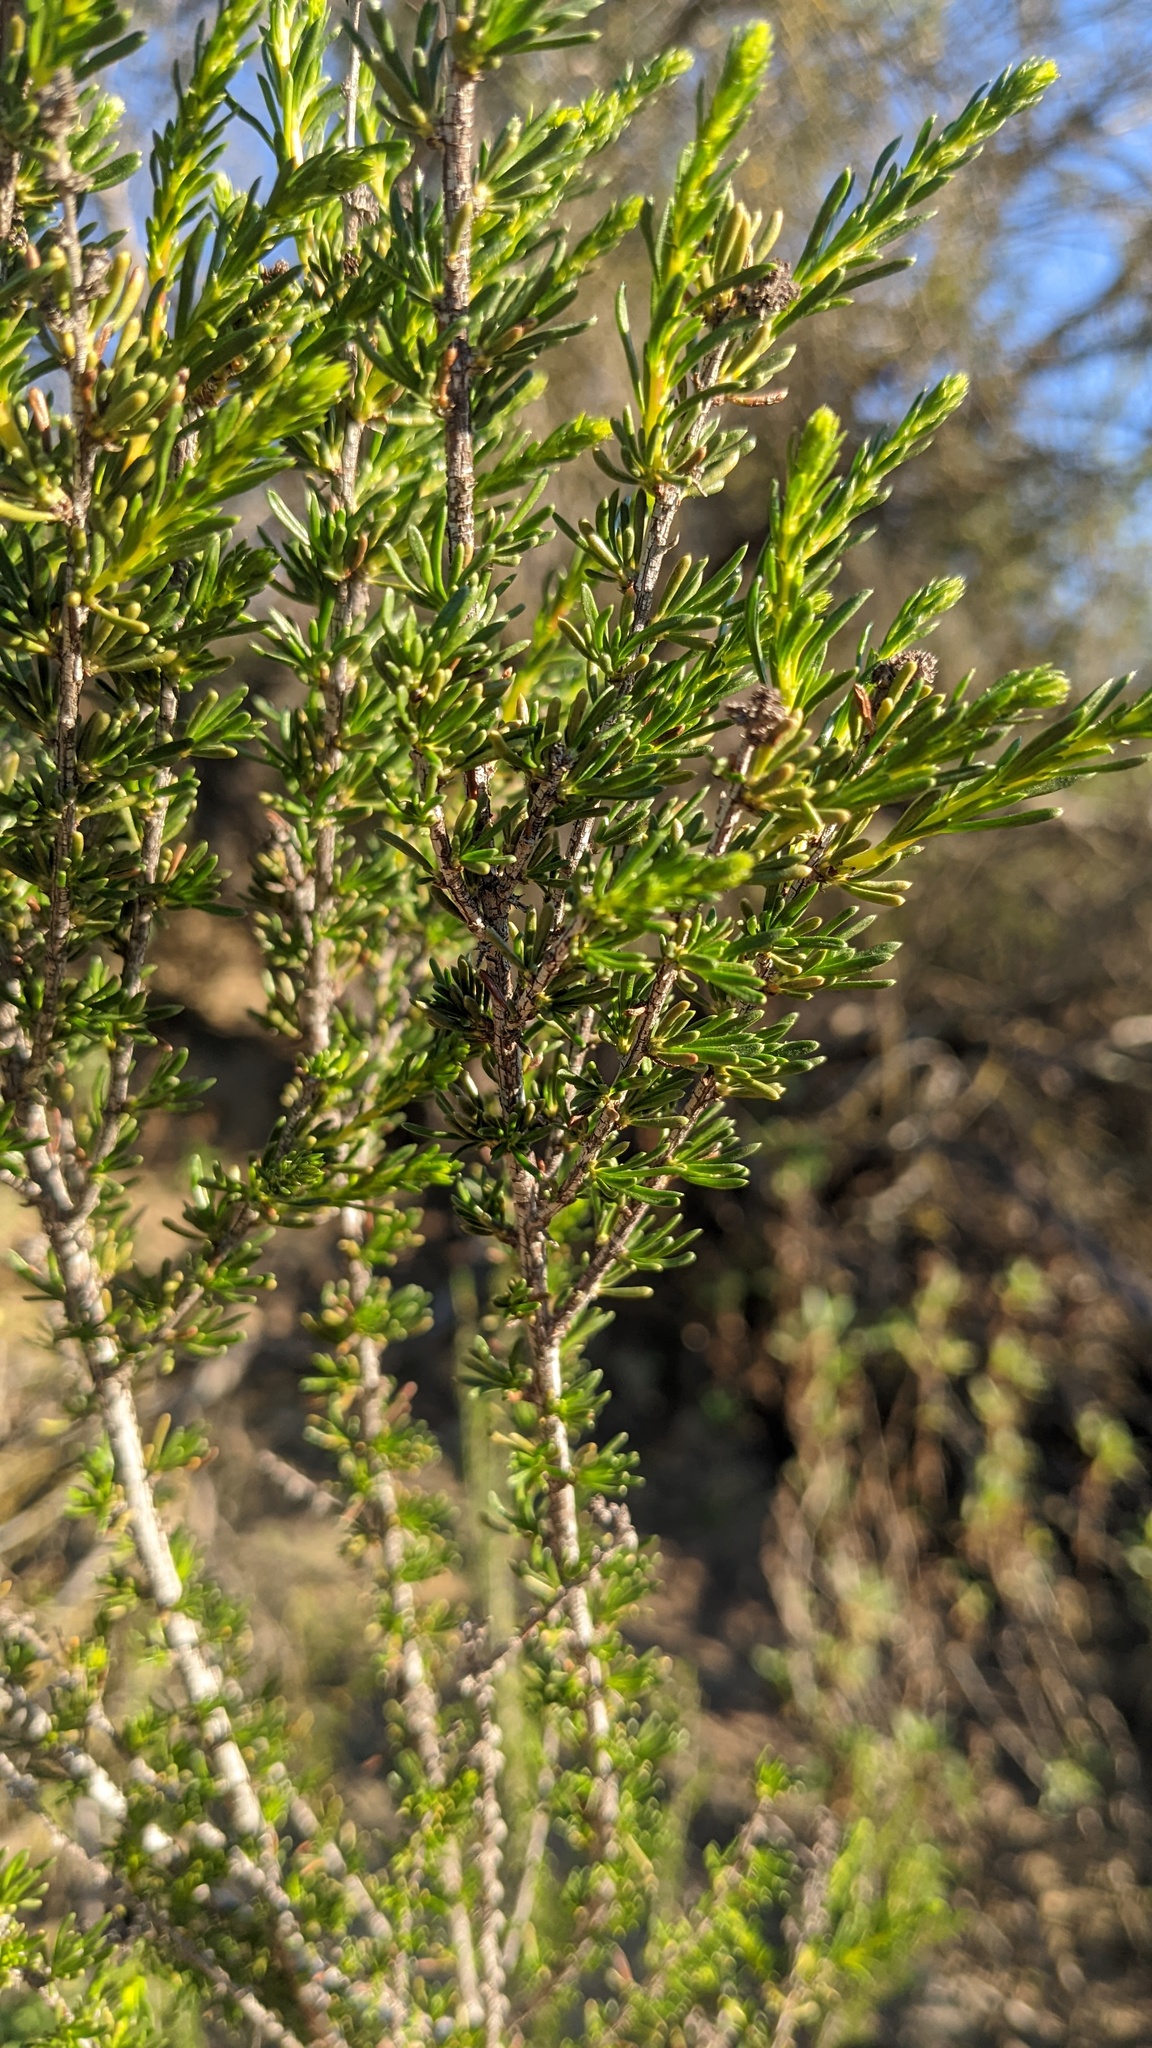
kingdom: Plantae
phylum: Tracheophyta
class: Magnoliopsida
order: Rosales
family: Rosaceae
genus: Adenostoma
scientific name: Adenostoma fasciculatum
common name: Chamise
